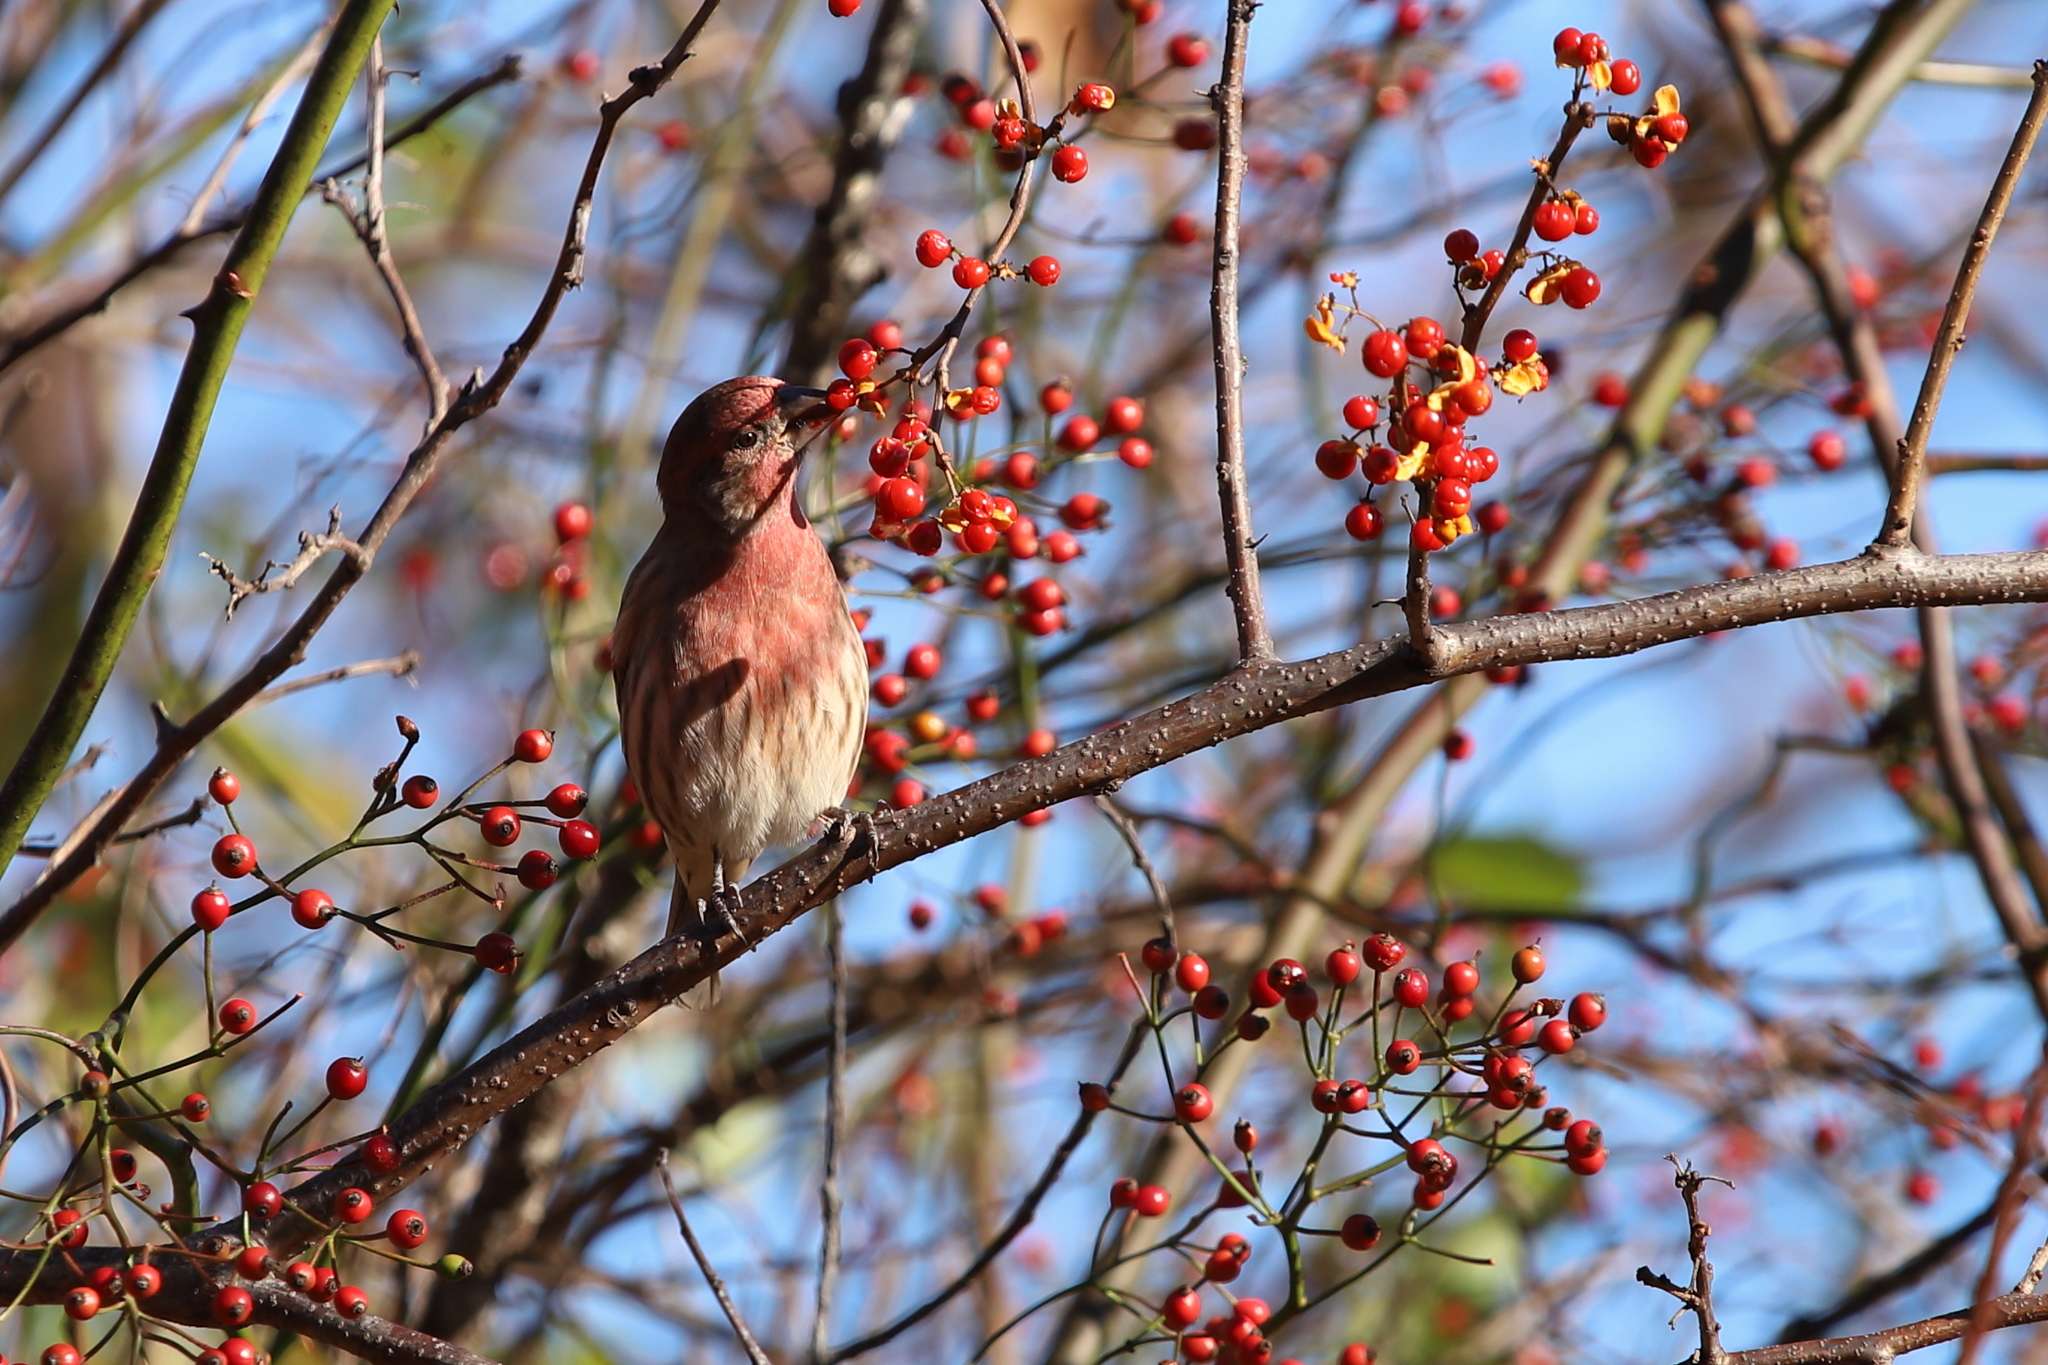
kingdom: Animalia
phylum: Chordata
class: Aves
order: Passeriformes
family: Fringillidae
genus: Haemorhous
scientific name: Haemorhous mexicanus
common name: House finch
